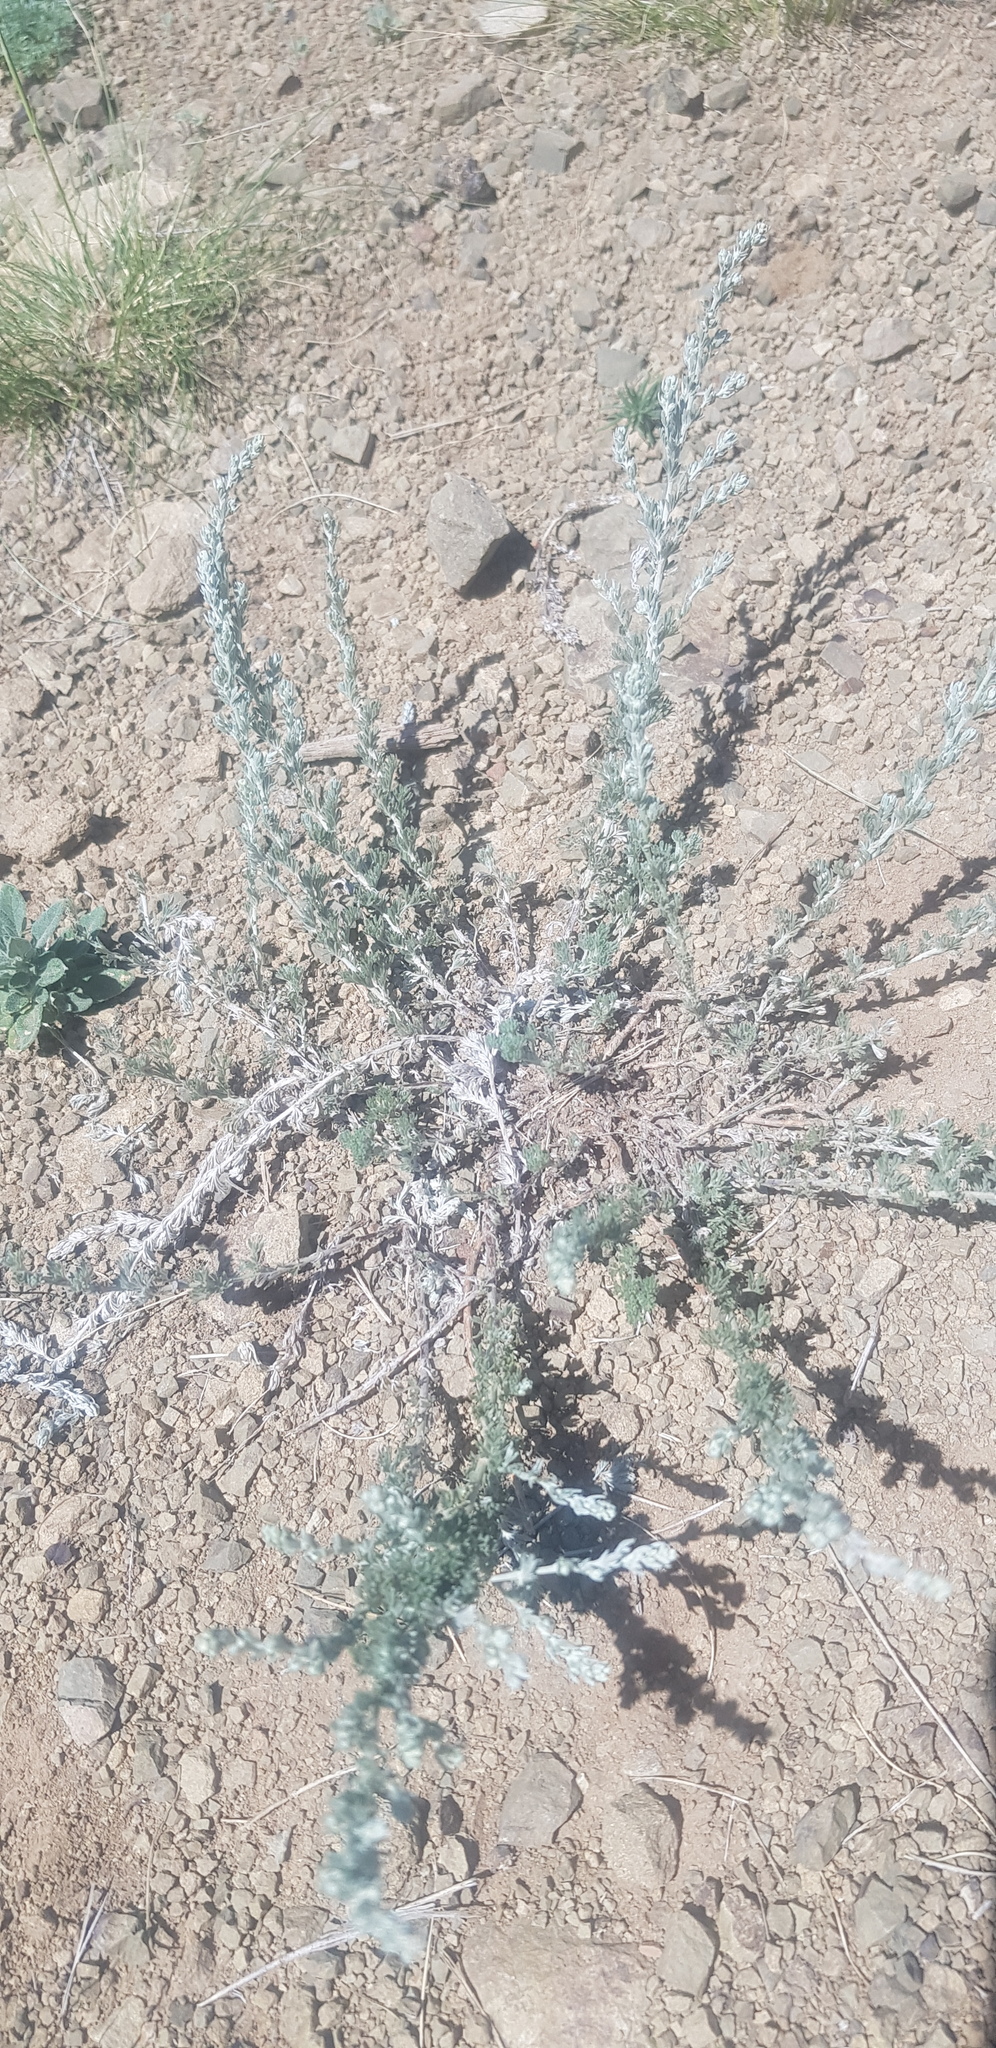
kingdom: Plantae
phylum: Tracheophyta
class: Magnoliopsida
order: Asterales
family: Asteraceae
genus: Artemisia
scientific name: Artemisia frigida
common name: Prairie sagewort
